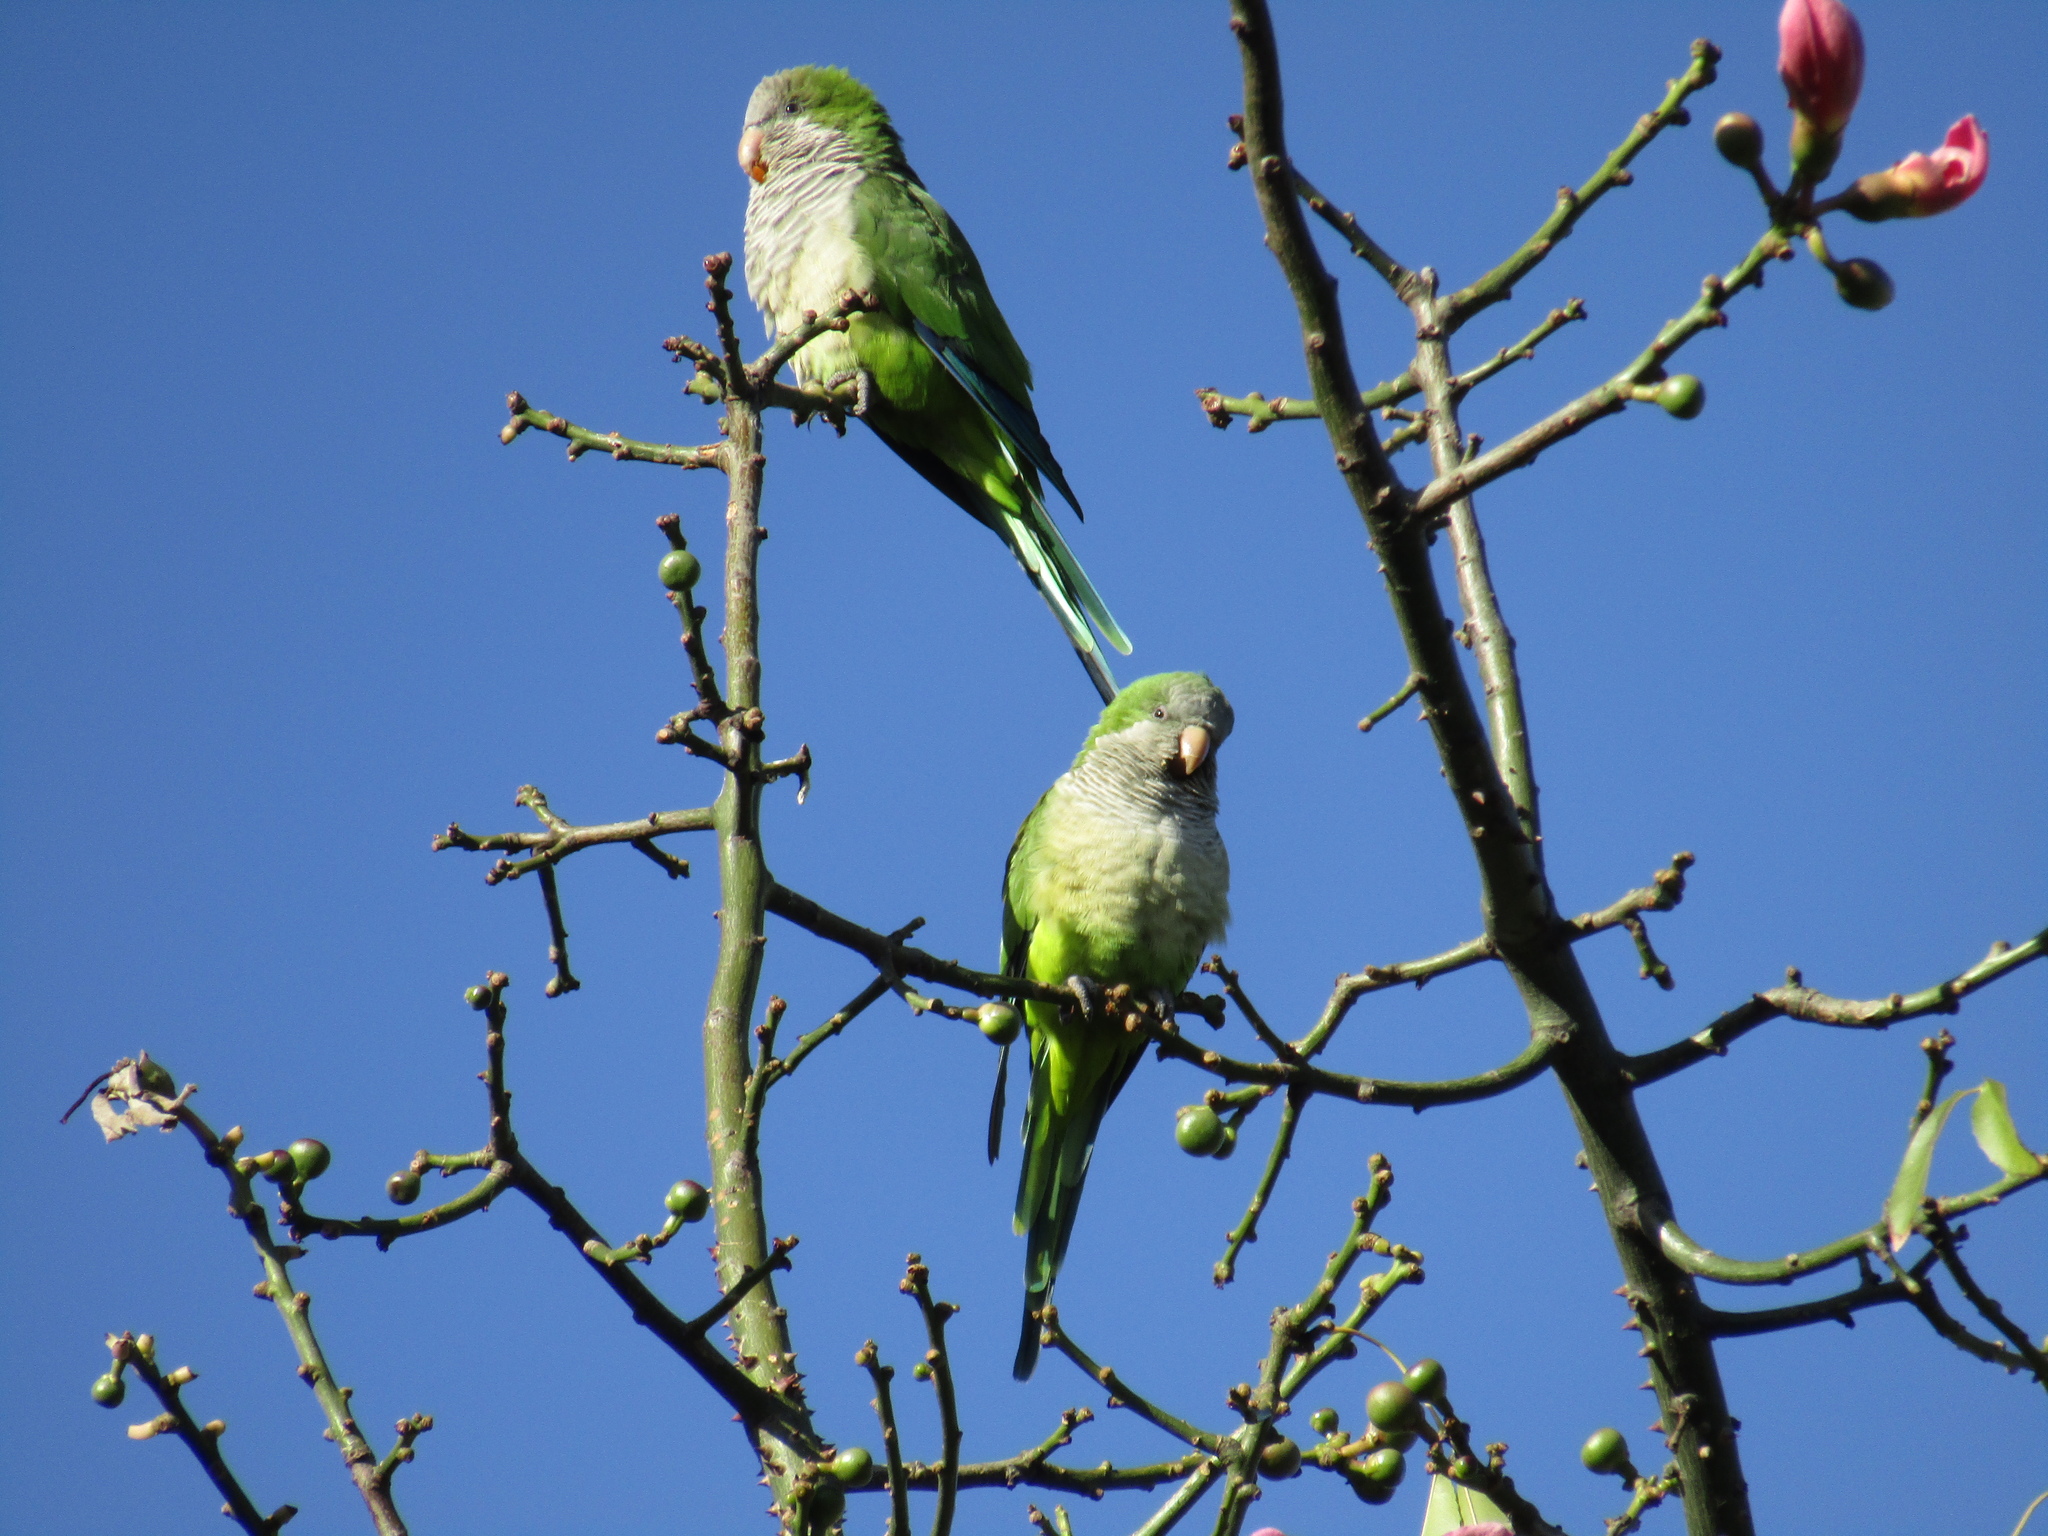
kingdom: Animalia
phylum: Chordata
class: Aves
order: Psittaciformes
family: Psittacidae
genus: Myiopsitta
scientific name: Myiopsitta monachus
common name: Monk parakeet
